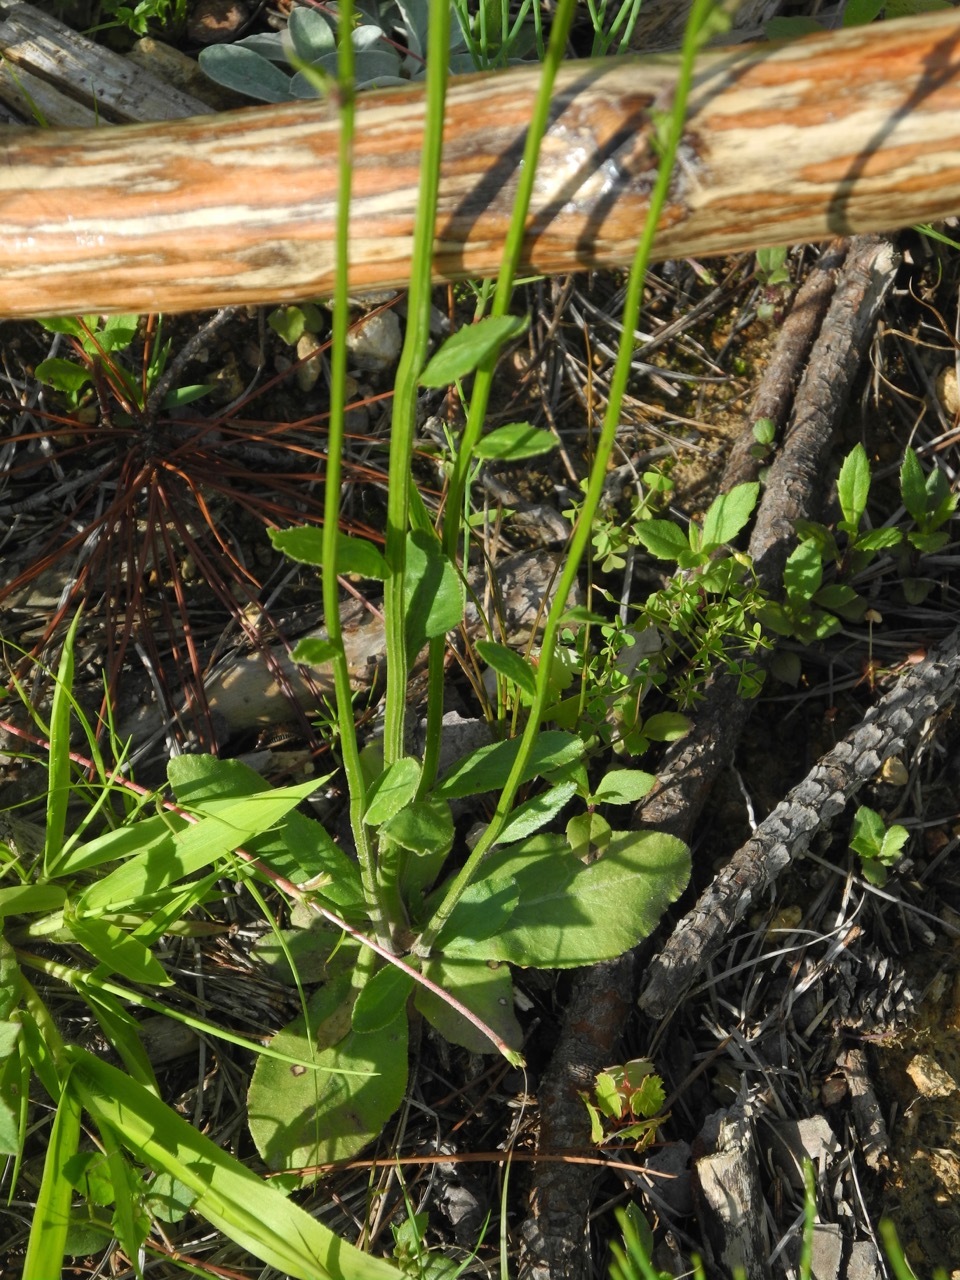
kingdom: Plantae
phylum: Tracheophyta
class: Magnoliopsida
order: Asterales
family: Campanulaceae
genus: Lobelia
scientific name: Lobelia spicata
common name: Pale-spike lobelia
